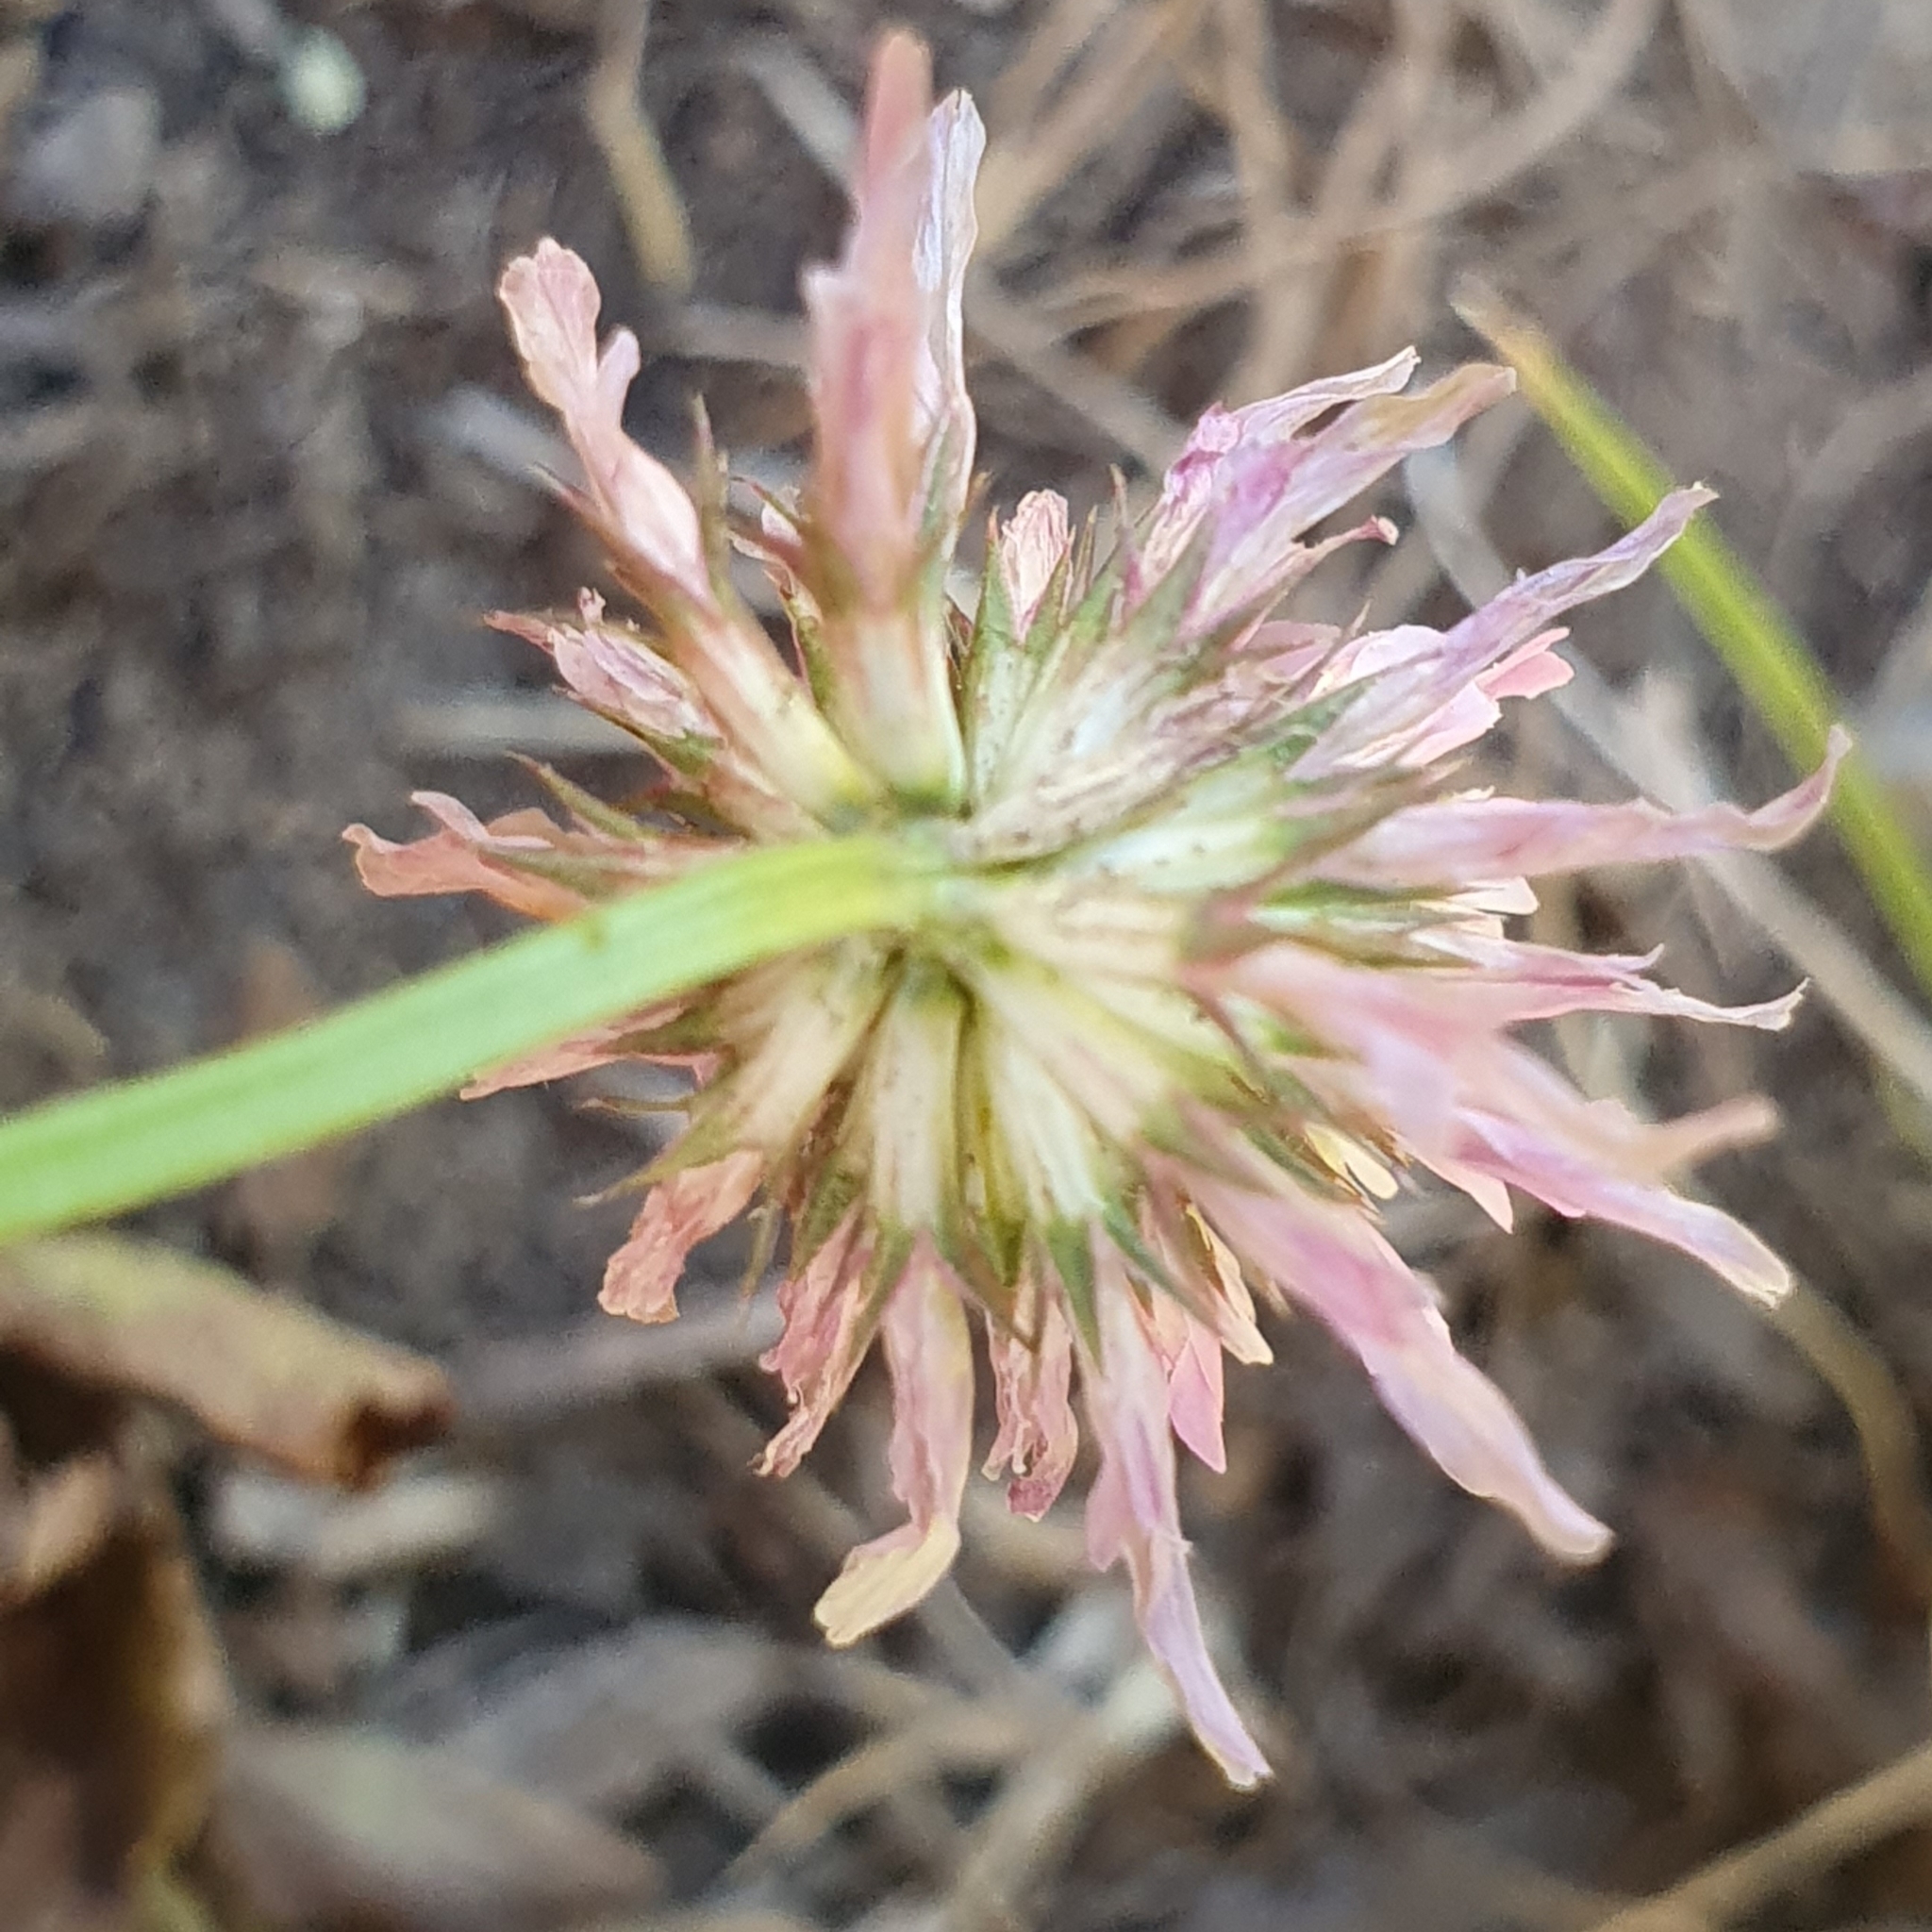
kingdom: Plantae
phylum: Tracheophyta
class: Magnoliopsida
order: Fabales
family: Fabaceae
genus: Trifolium
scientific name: Trifolium isthmocarpum
